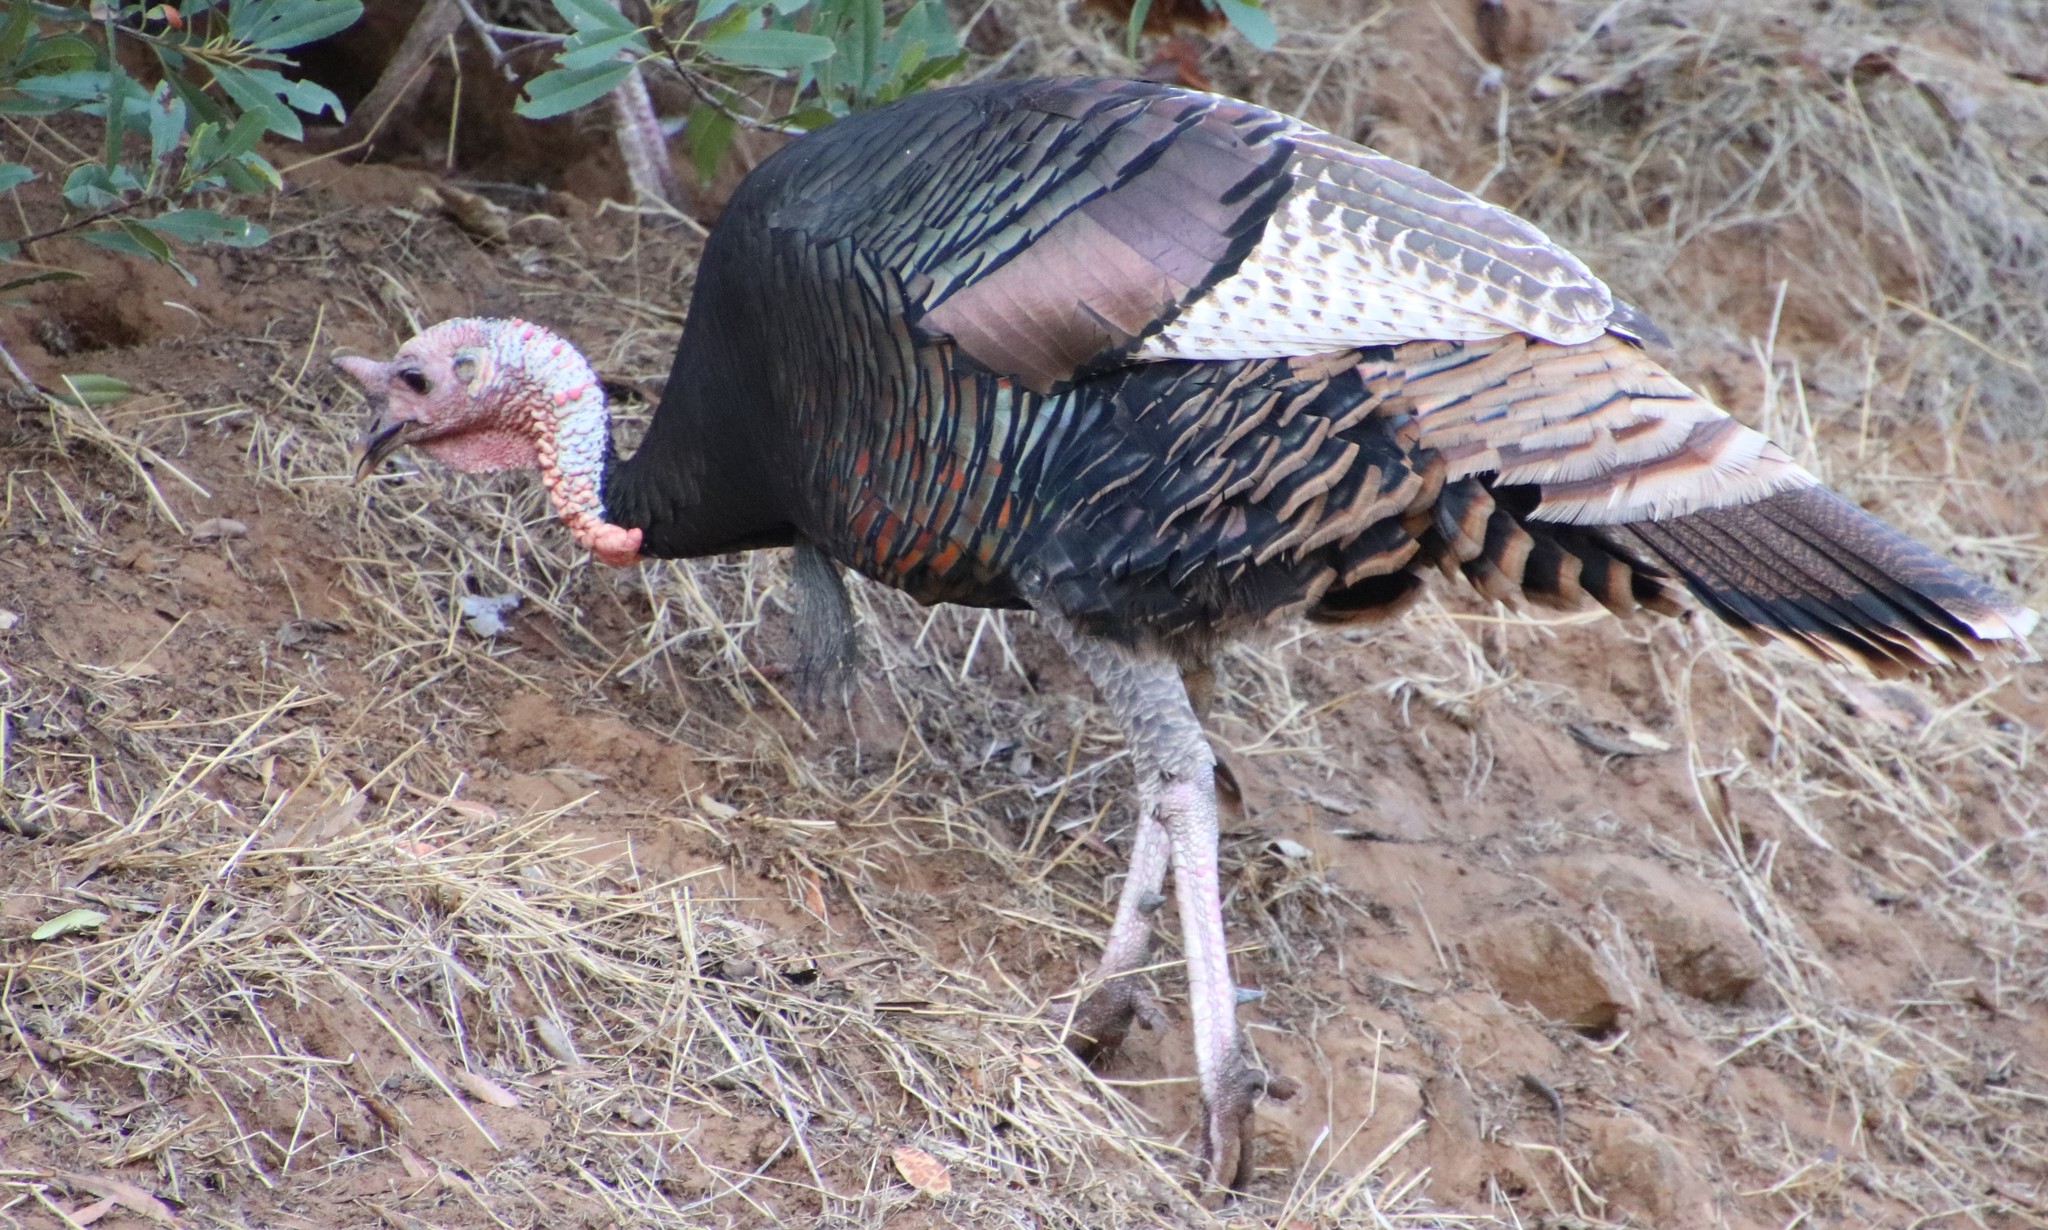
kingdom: Animalia
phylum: Chordata
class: Aves
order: Galliformes
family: Phasianidae
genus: Meleagris
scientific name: Meleagris gallopavo
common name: Wild turkey
